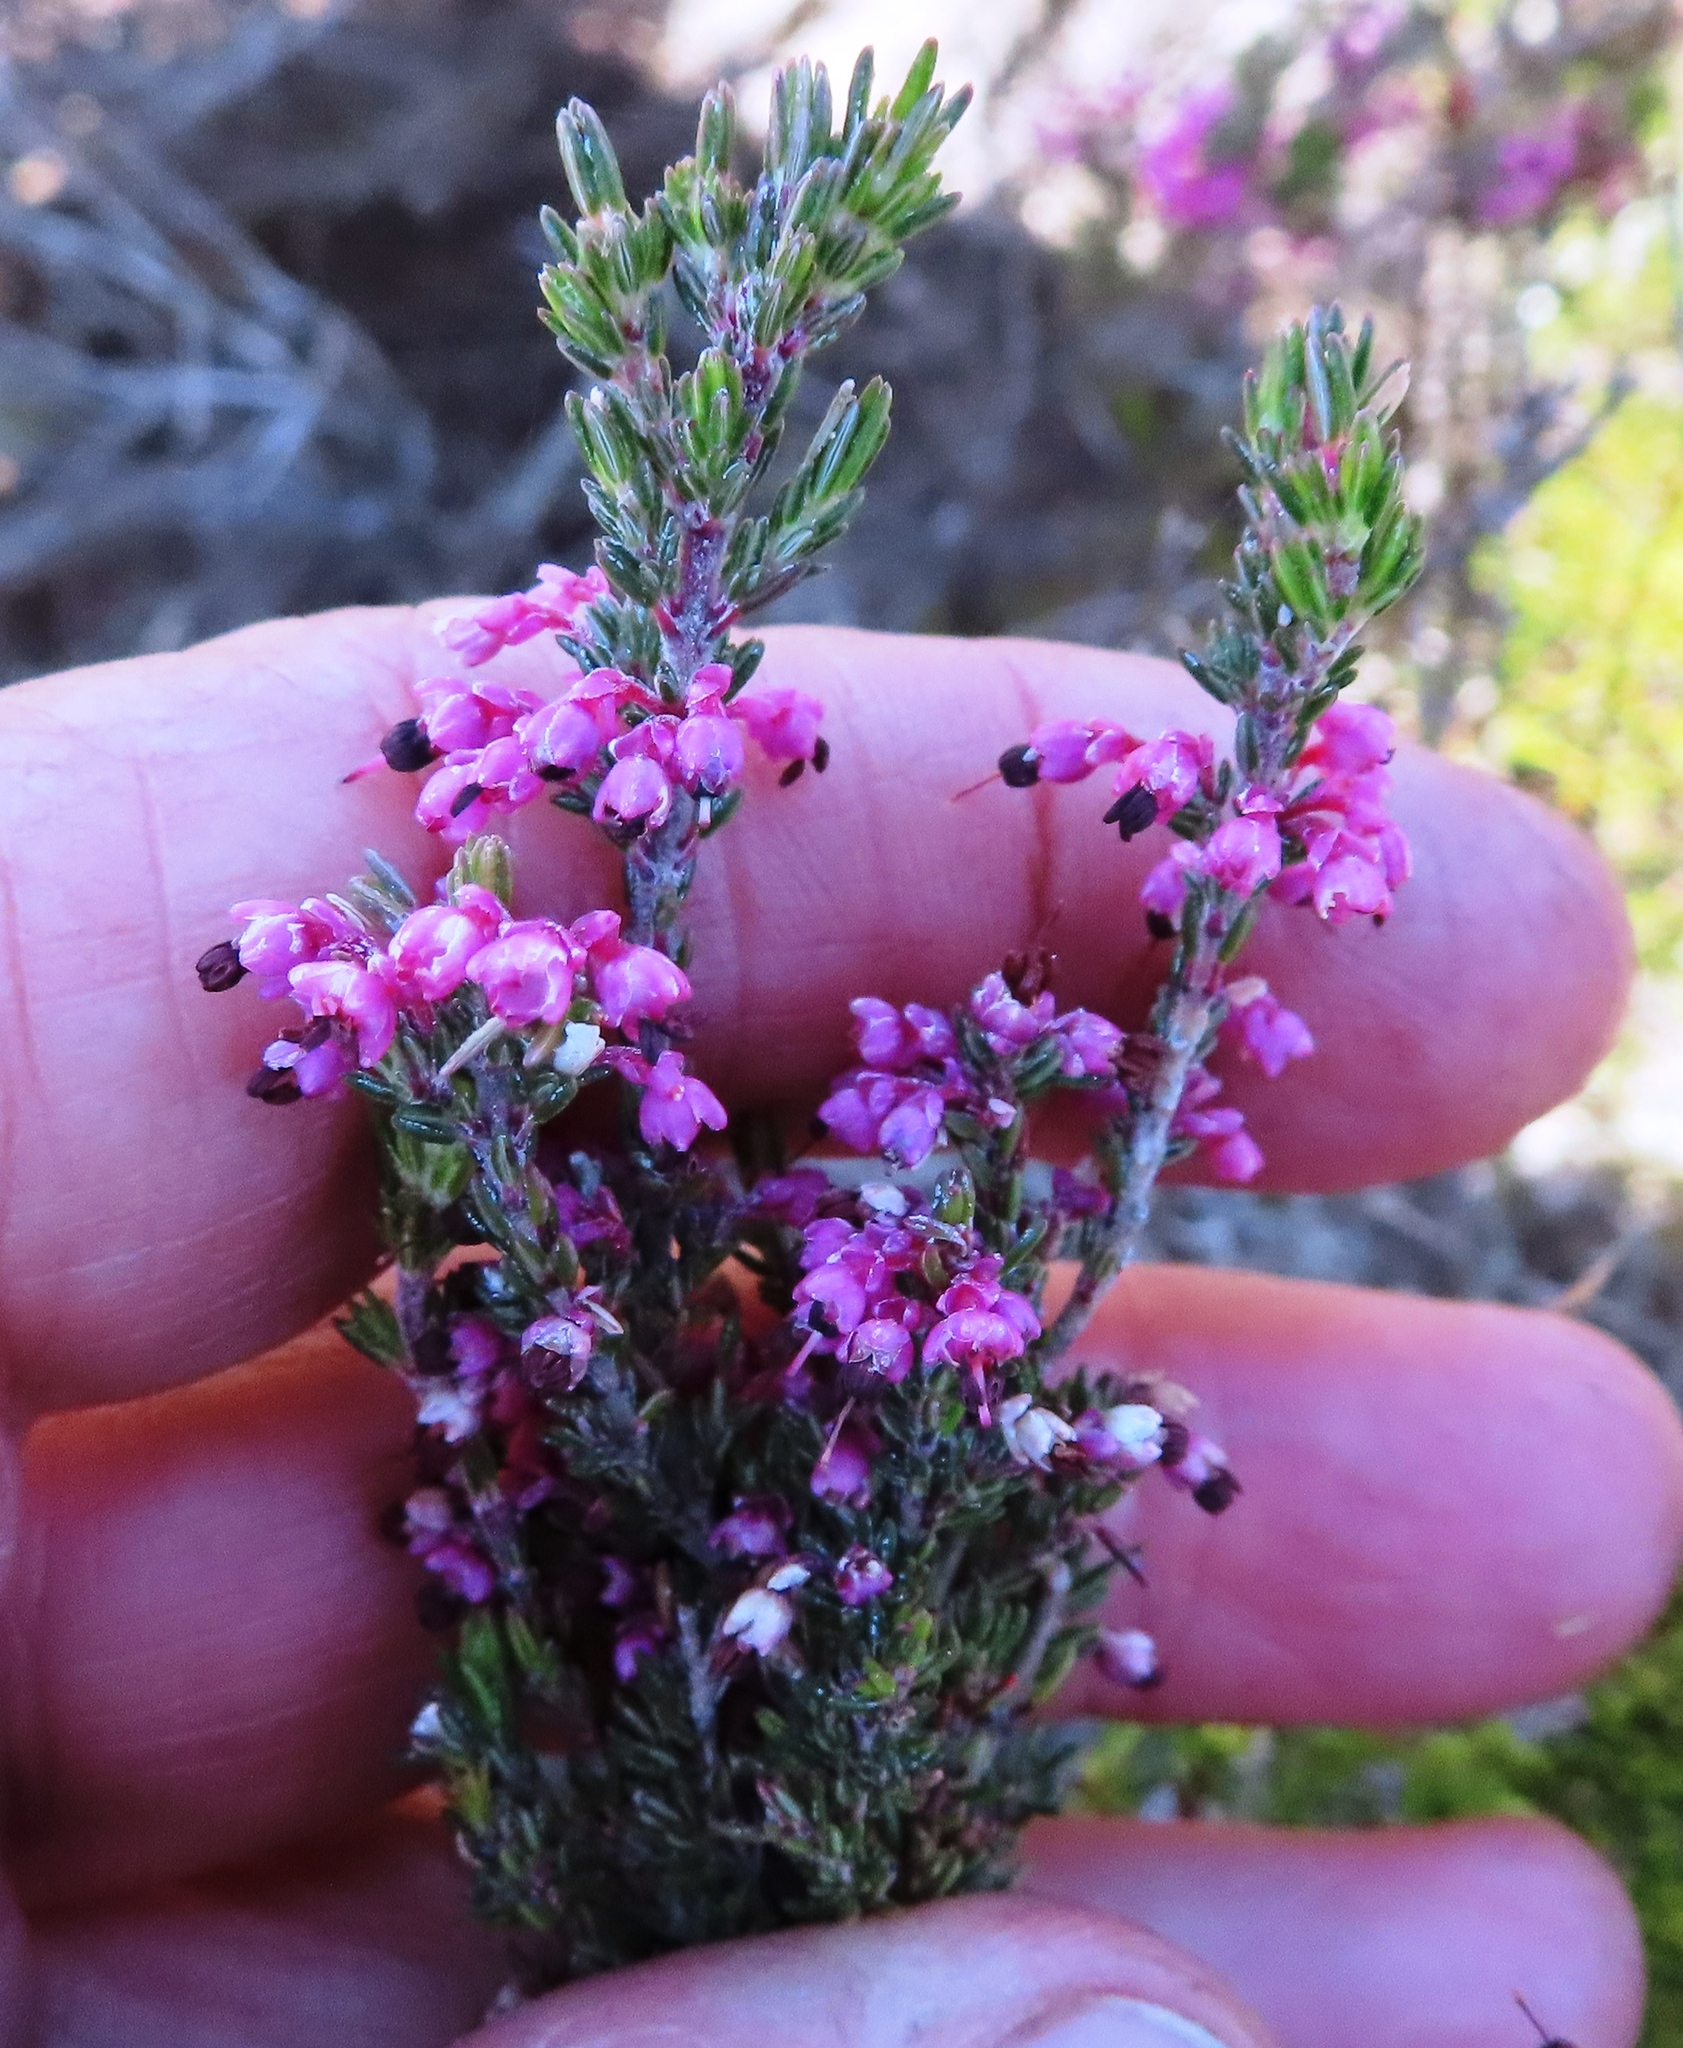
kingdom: Plantae
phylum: Tracheophyta
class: Magnoliopsida
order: Ericales
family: Ericaceae
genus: Erica
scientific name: Erica placentiflora
